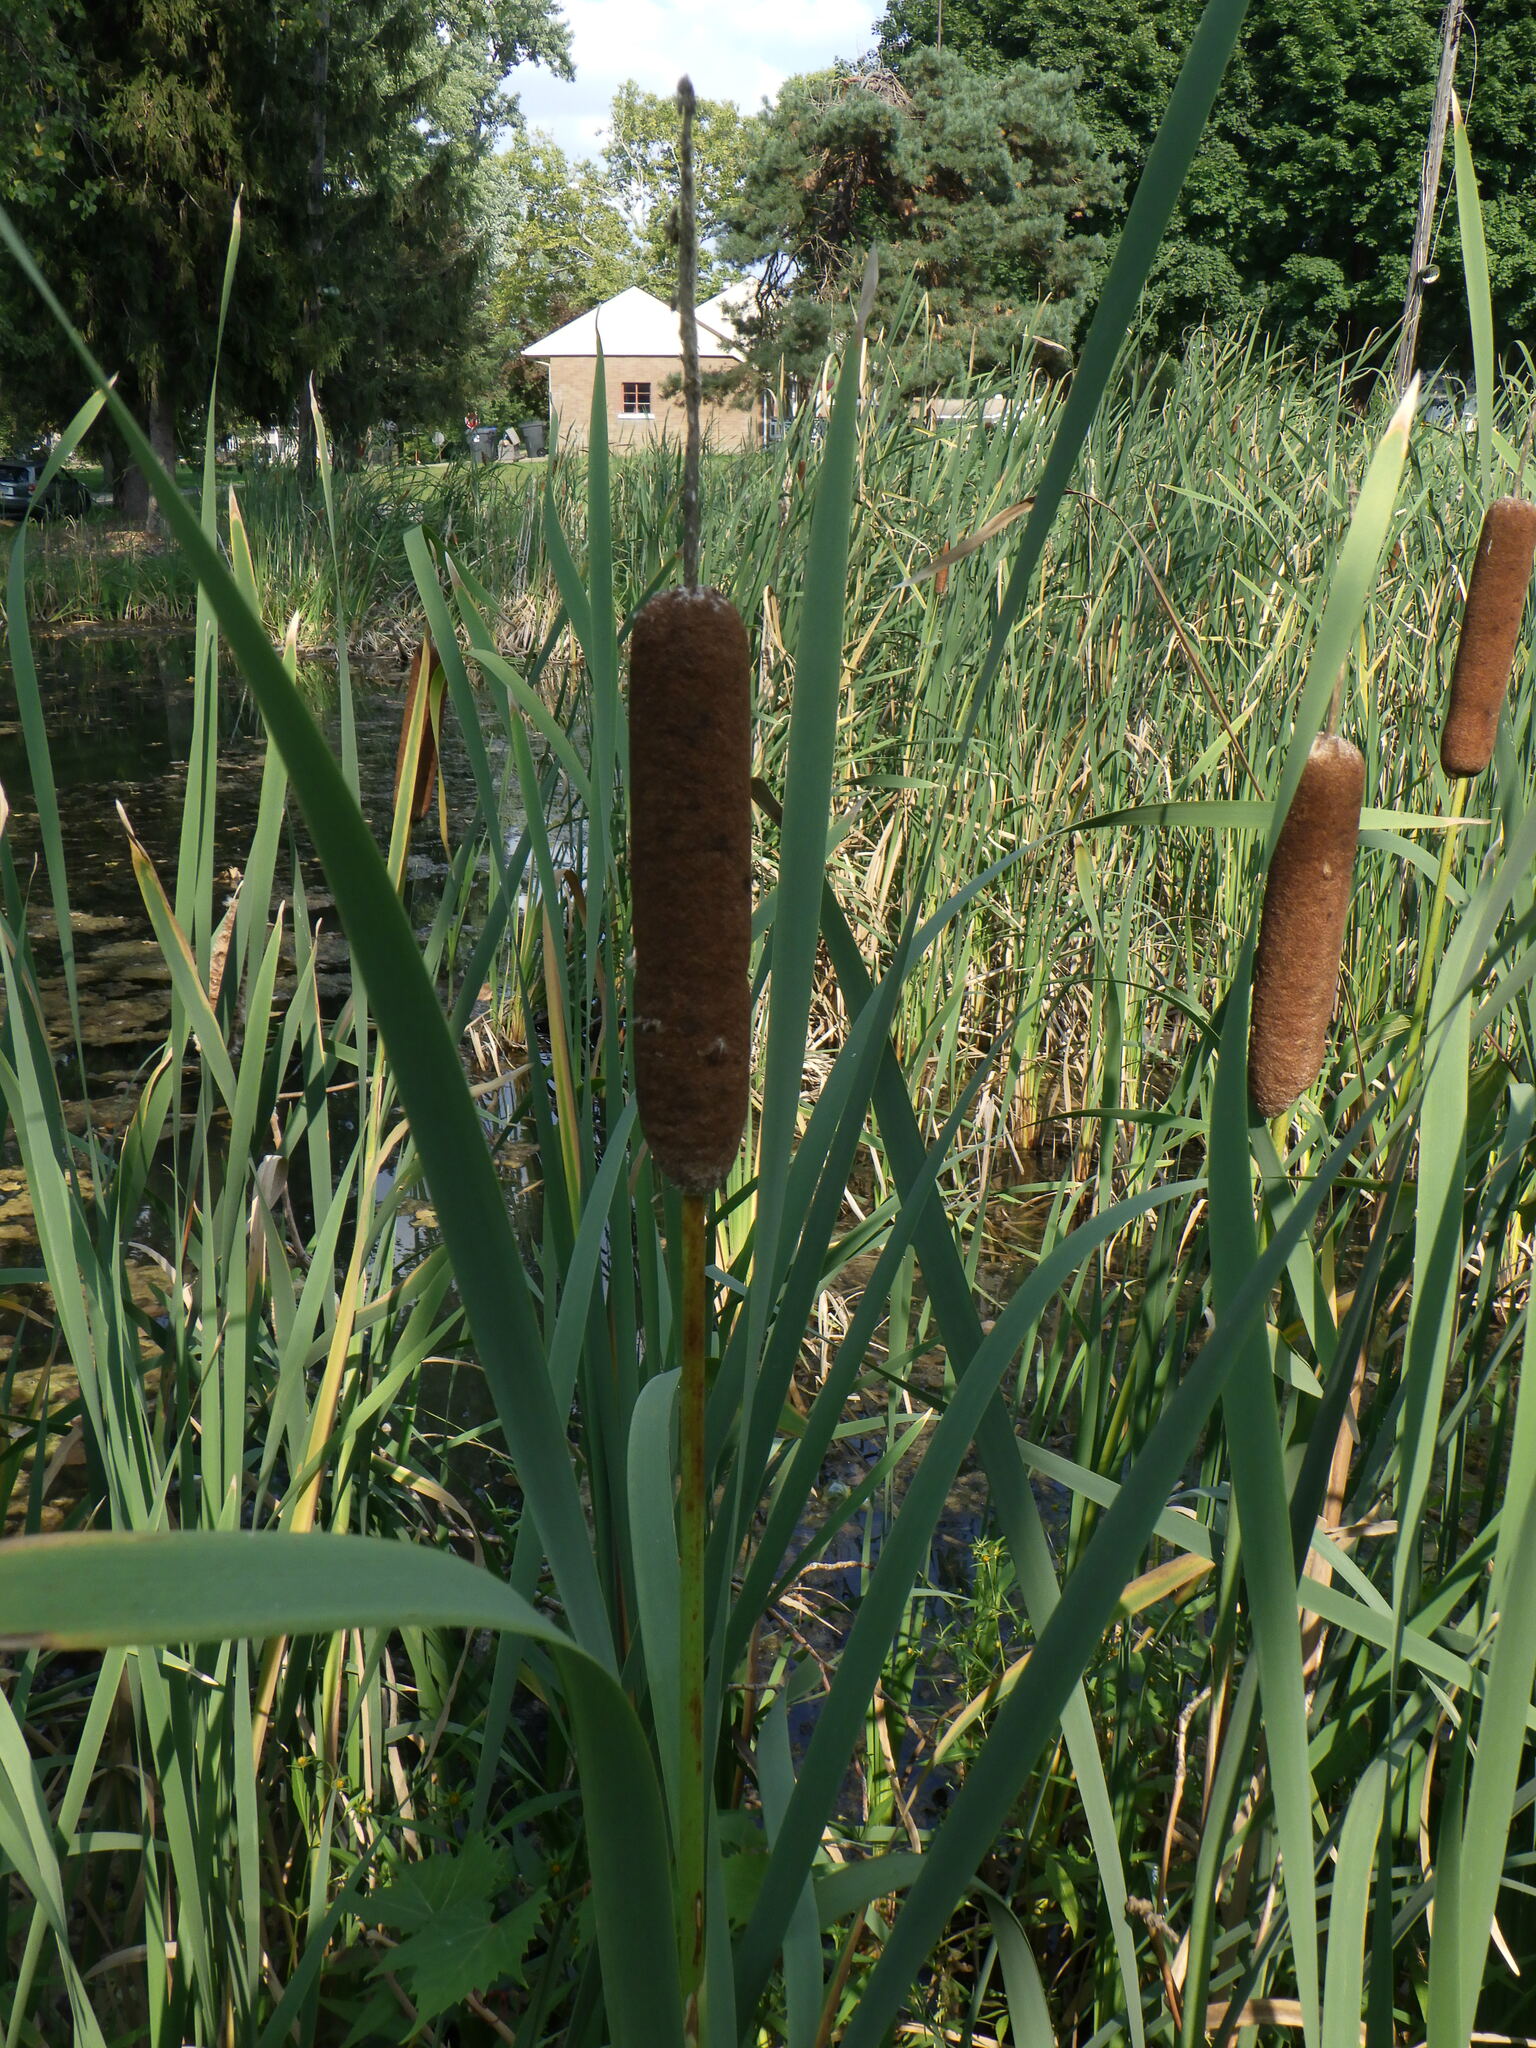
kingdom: Plantae
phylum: Tracheophyta
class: Liliopsida
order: Poales
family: Typhaceae
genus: Typha
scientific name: Typha latifolia
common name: Broadleaf cattail
